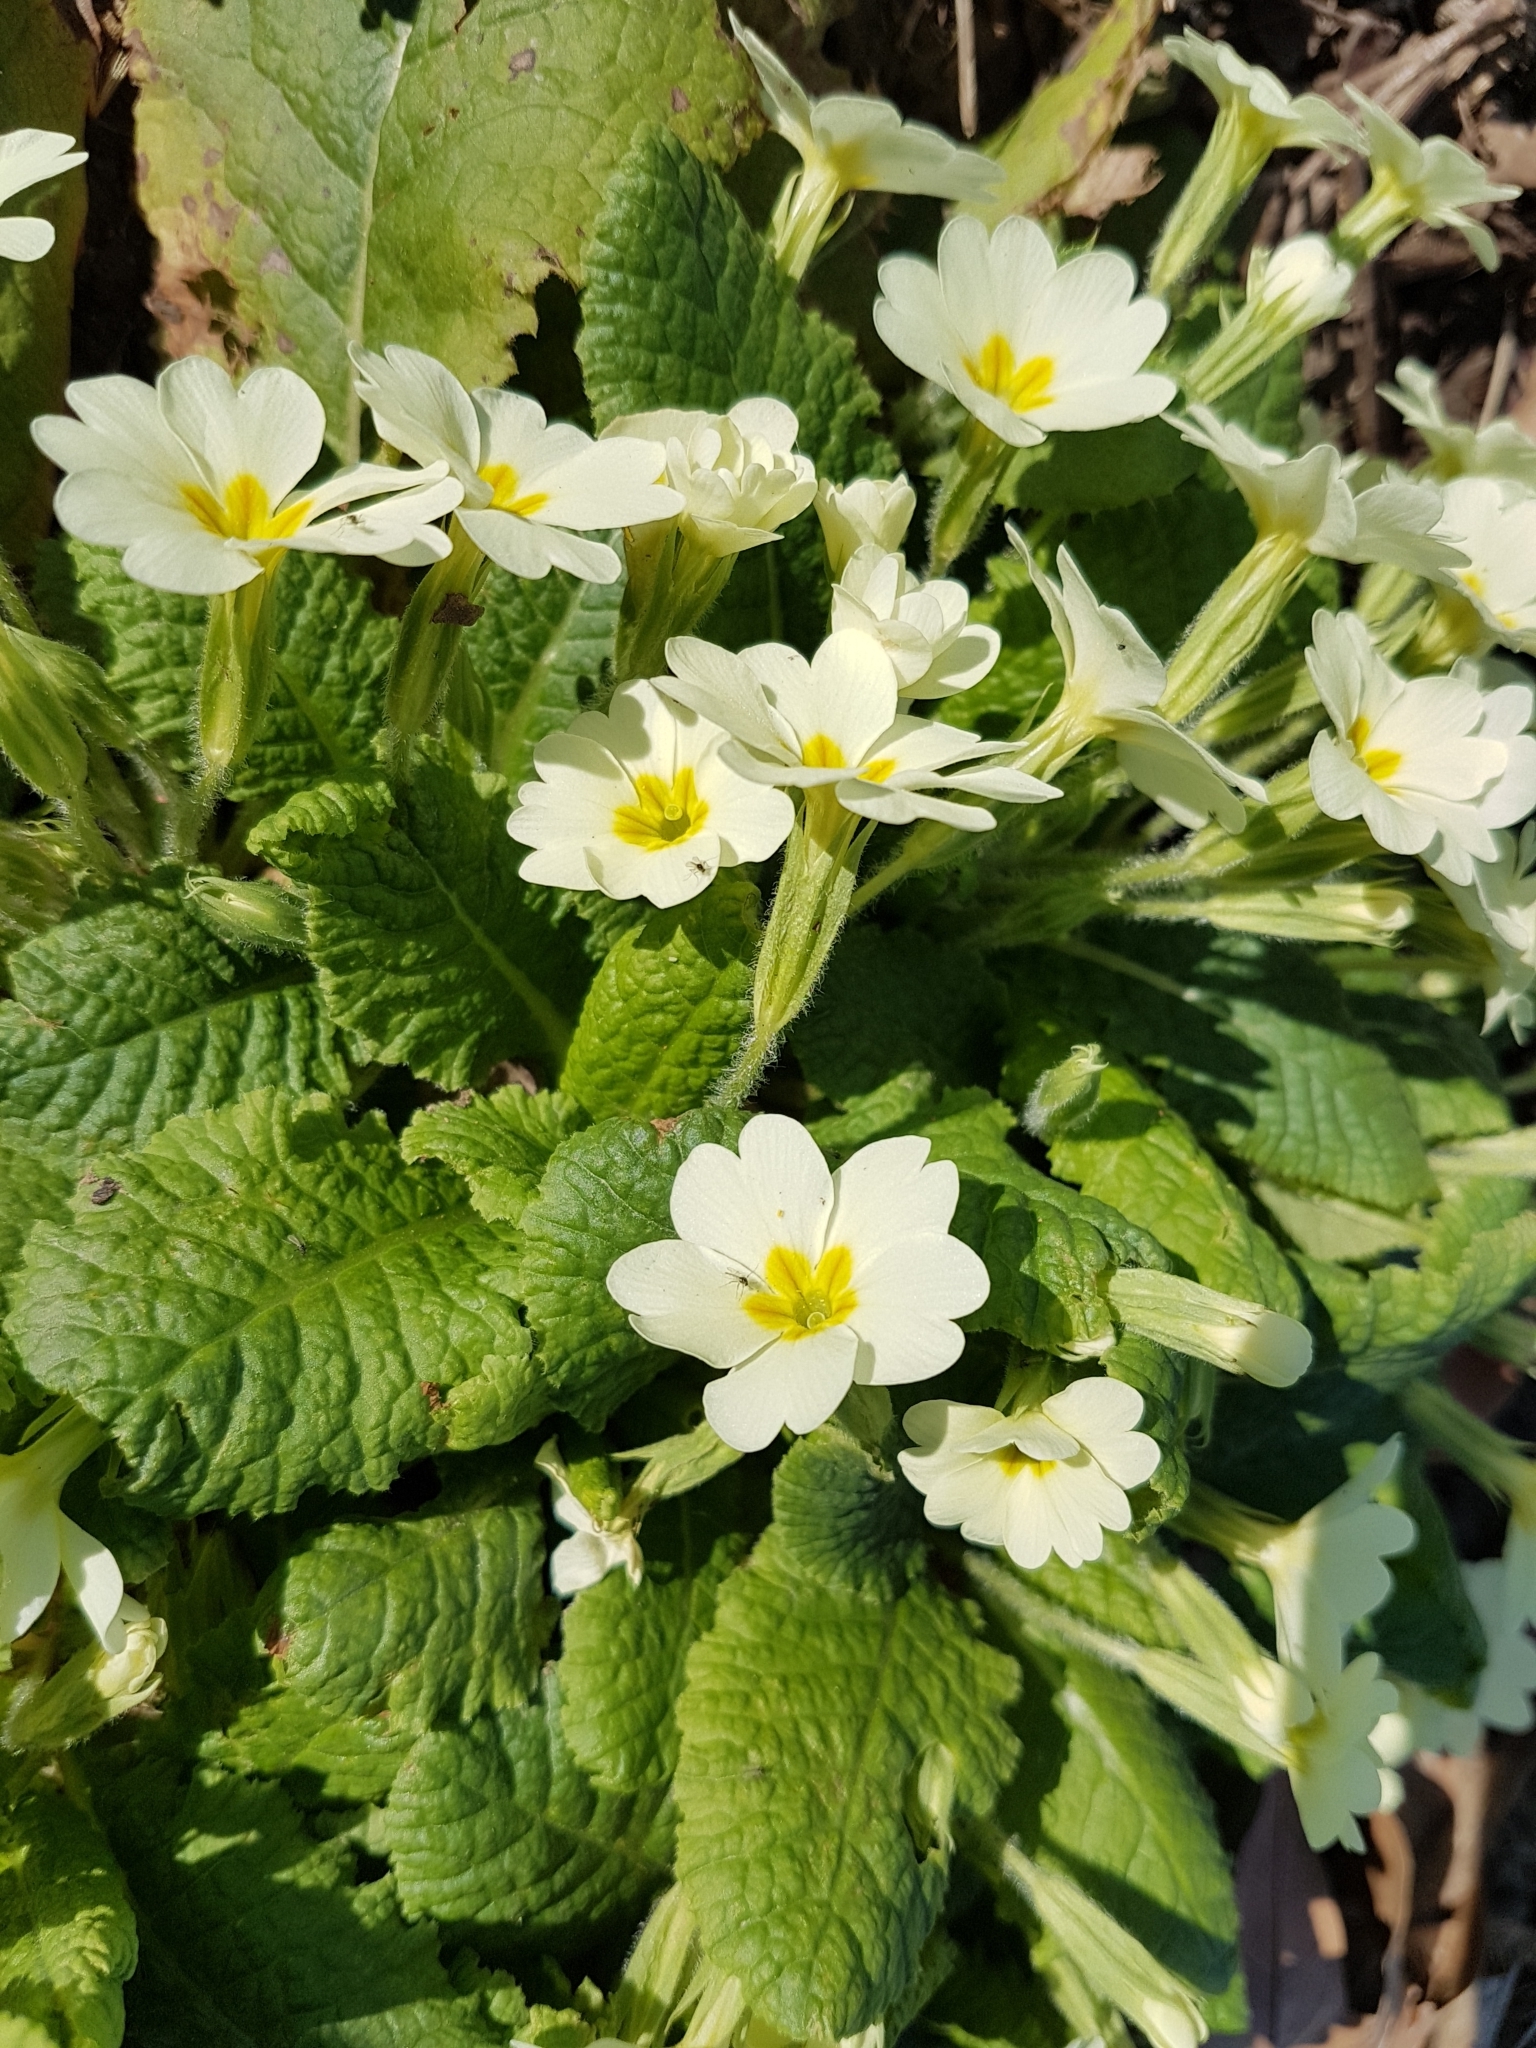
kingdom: Plantae
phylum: Tracheophyta
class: Magnoliopsida
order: Ericales
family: Primulaceae
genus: Primula
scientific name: Primula vulgaris
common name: Primrose
